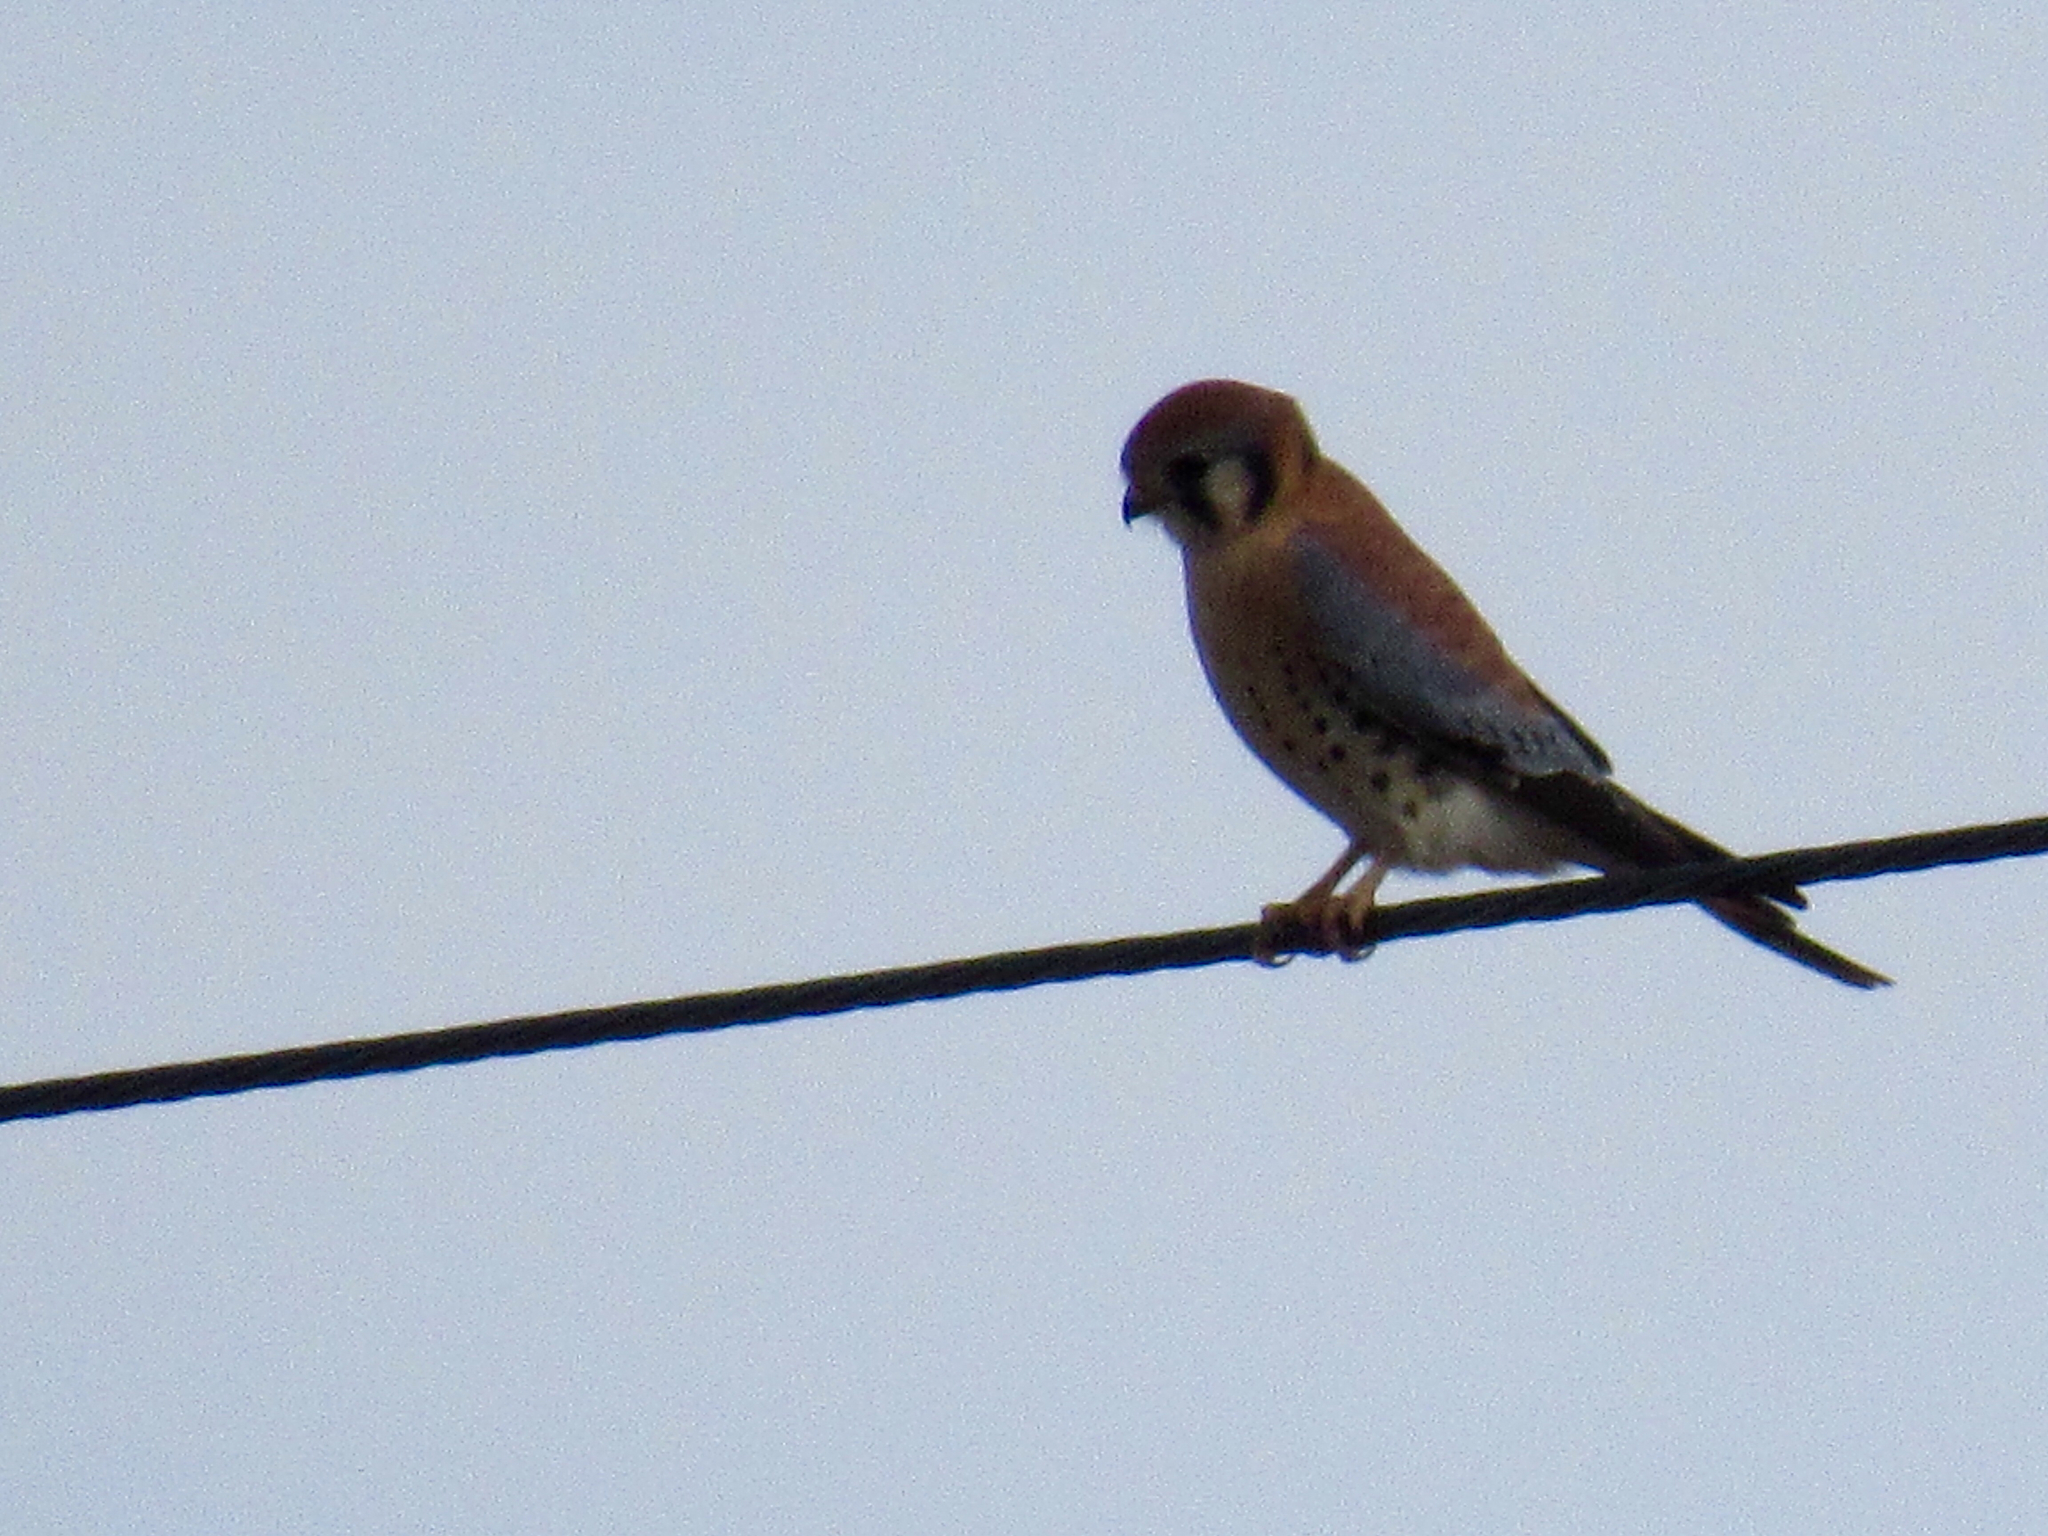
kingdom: Animalia
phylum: Chordata
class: Aves
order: Falconiformes
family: Falconidae
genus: Falco
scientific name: Falco sparverius
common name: American kestrel
